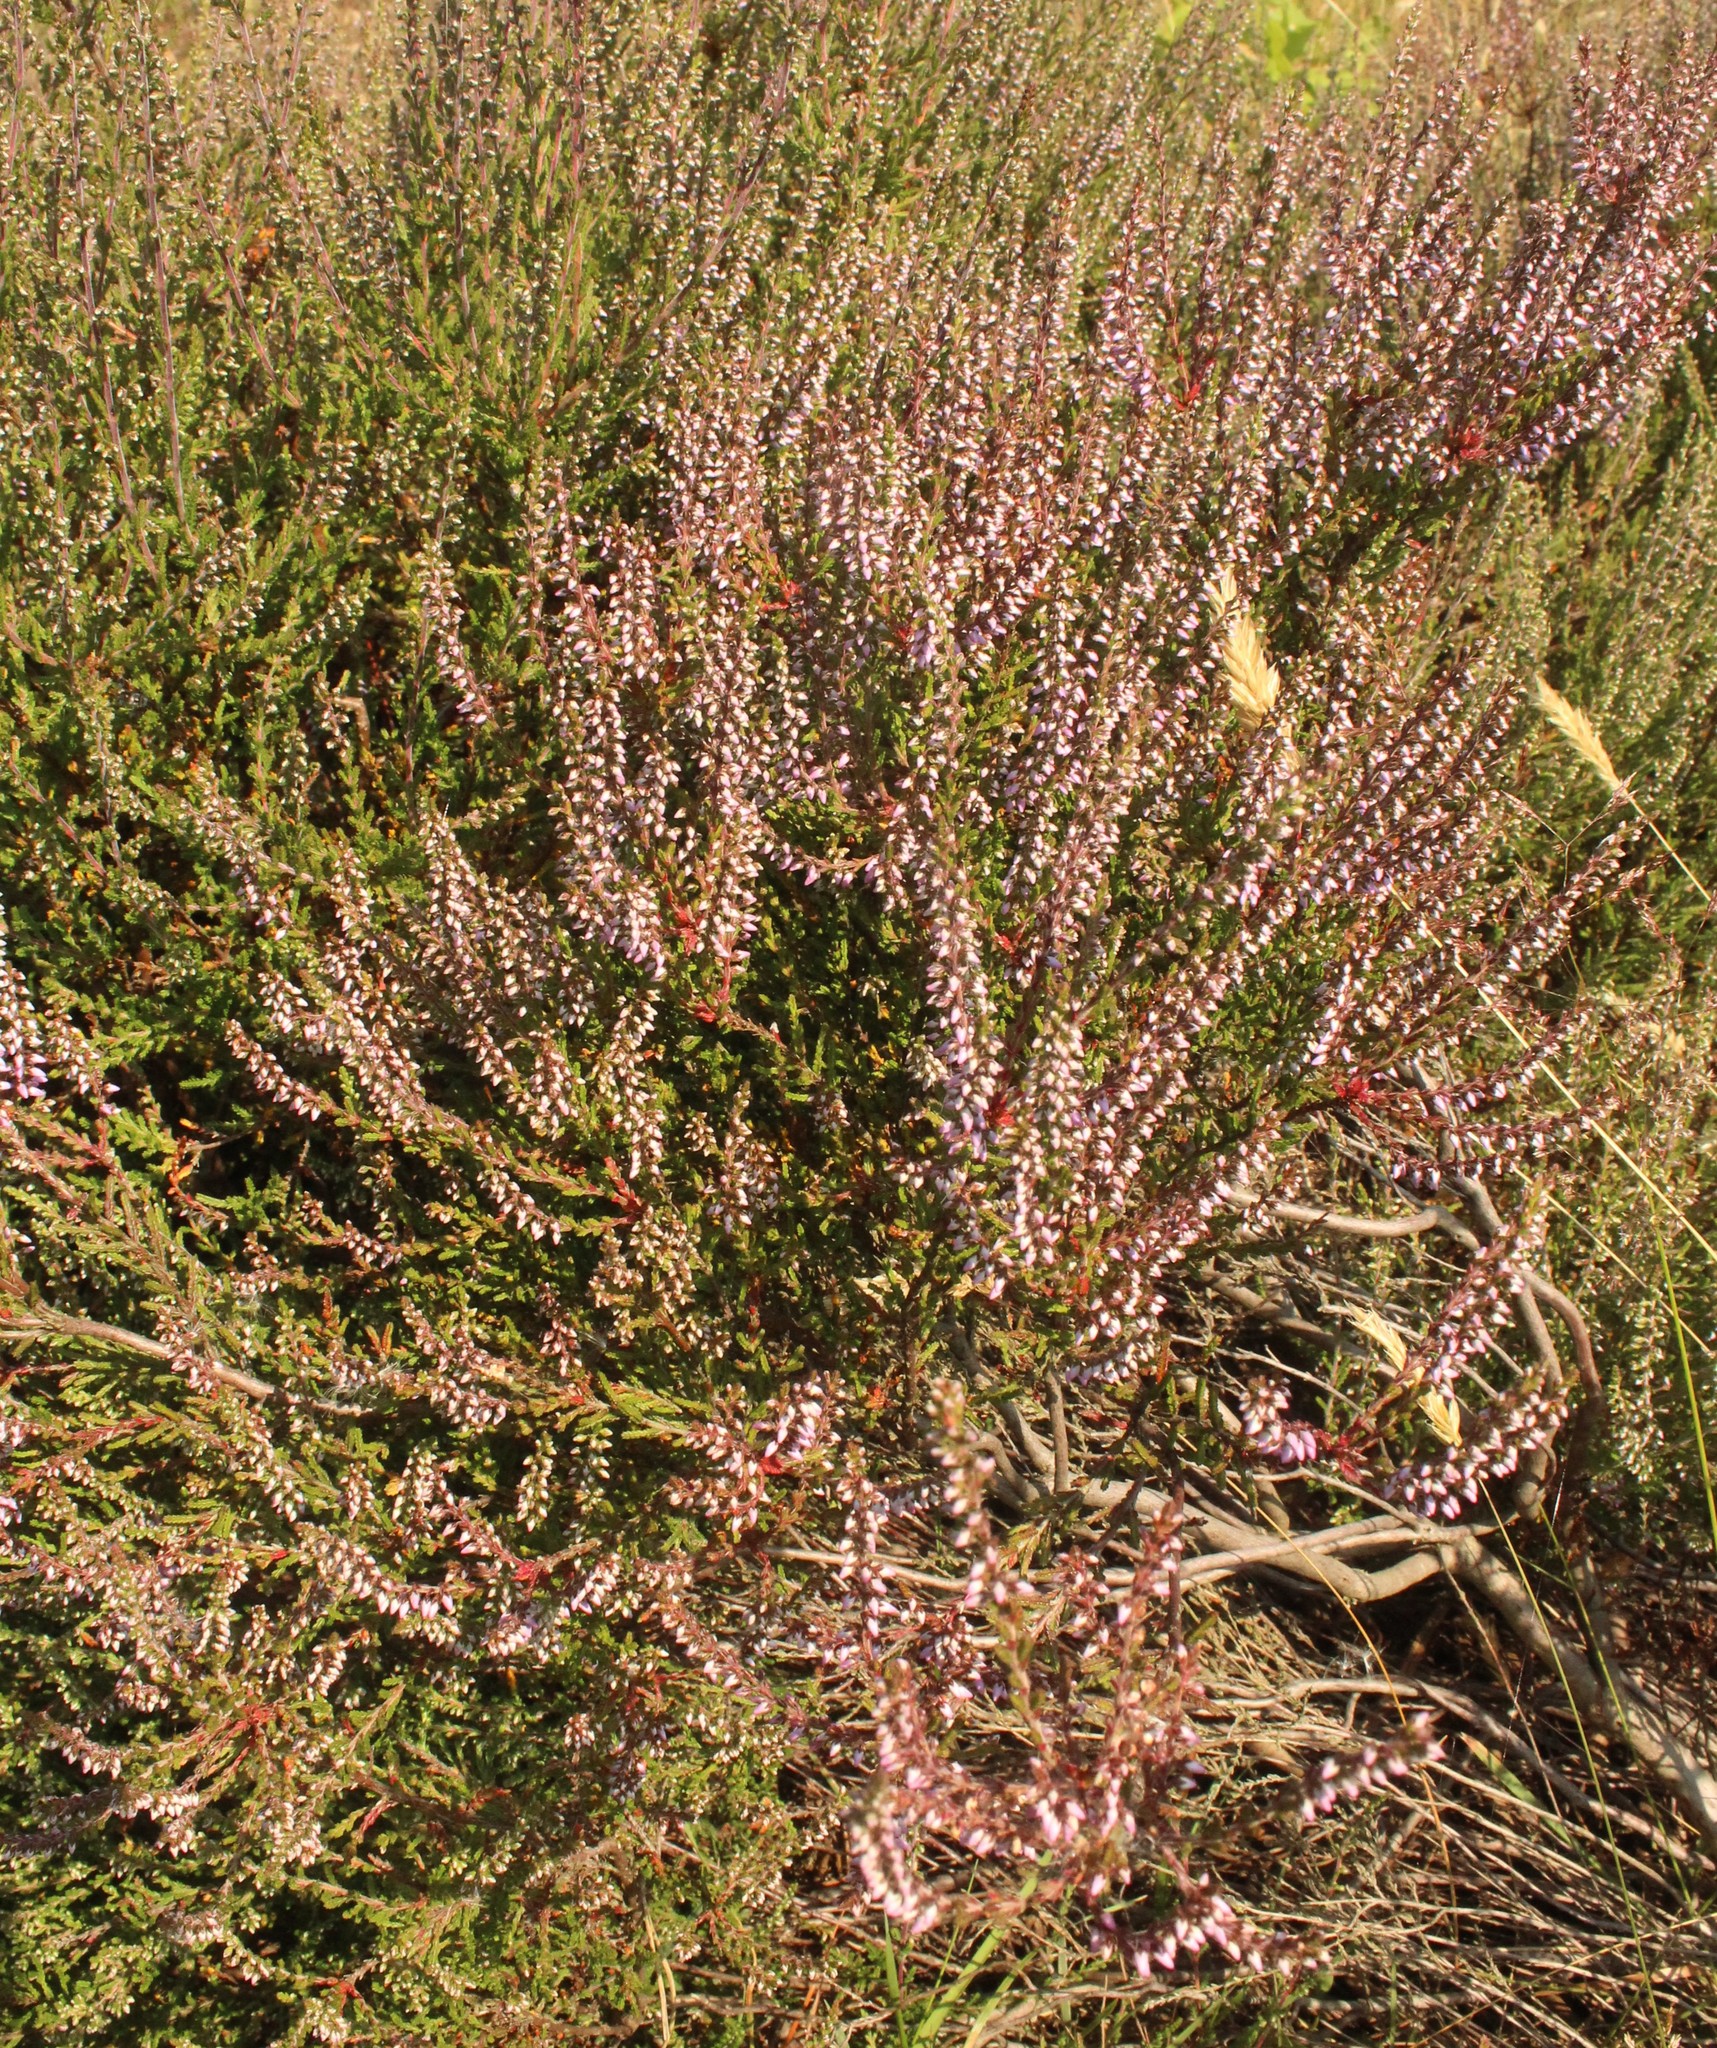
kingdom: Plantae
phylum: Tracheophyta
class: Magnoliopsida
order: Ericales
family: Ericaceae
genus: Calluna
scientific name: Calluna vulgaris
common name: Heather
